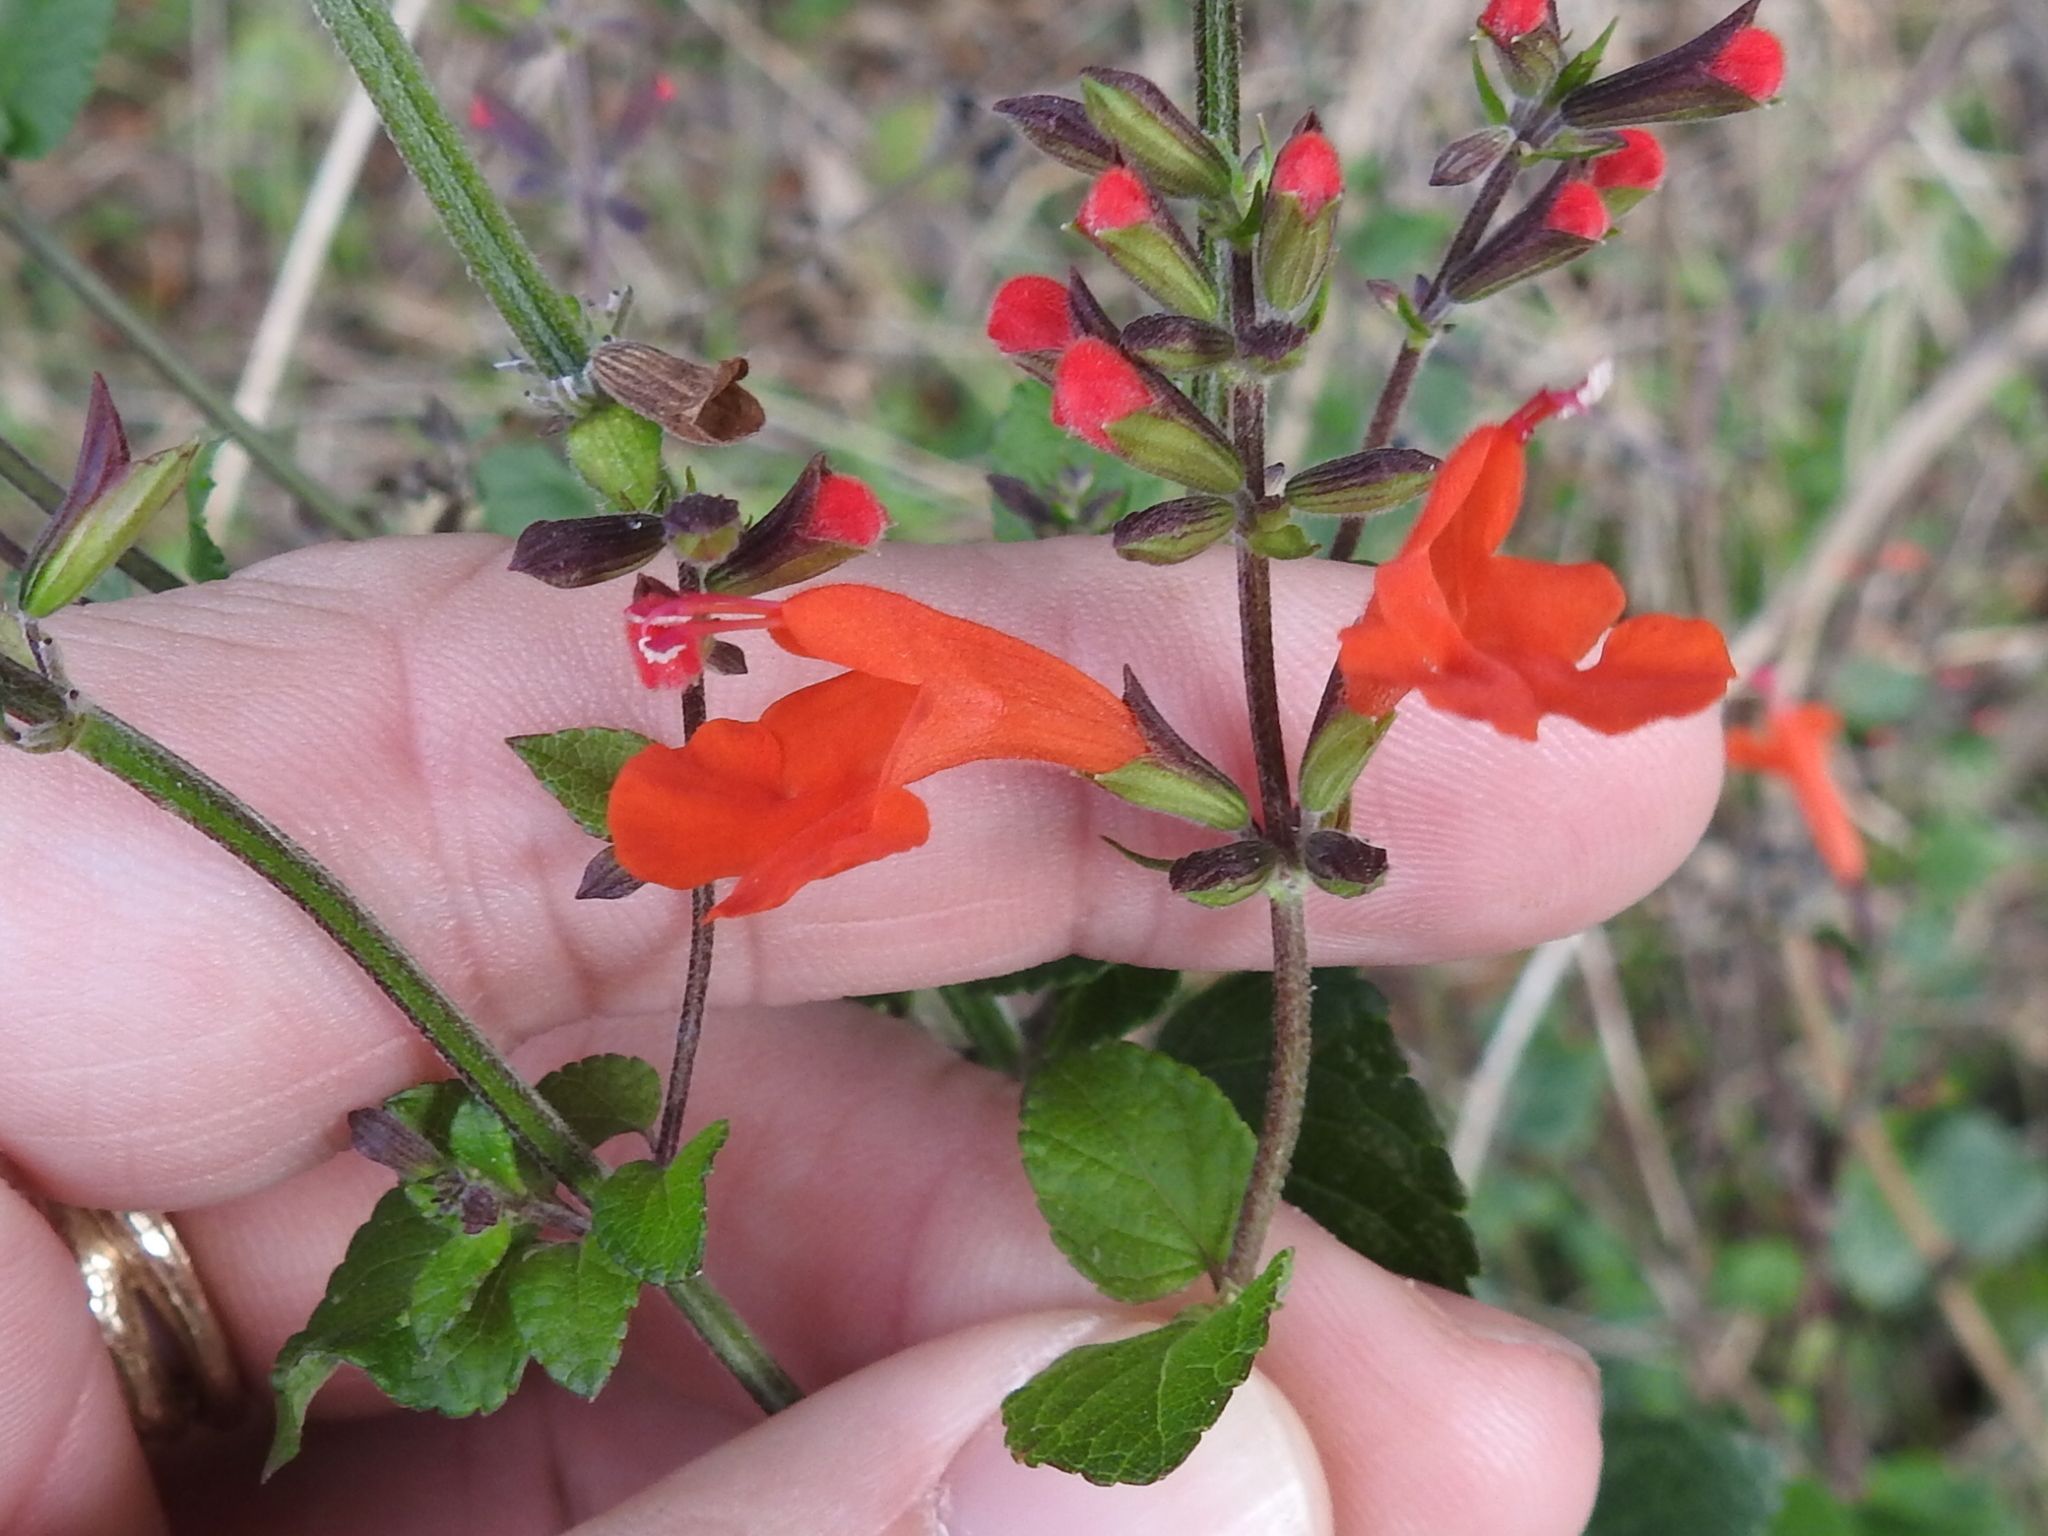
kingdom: Plantae
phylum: Tracheophyta
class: Magnoliopsida
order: Lamiales
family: Lamiaceae
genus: Salvia
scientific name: Salvia coccinea
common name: Blood sage
